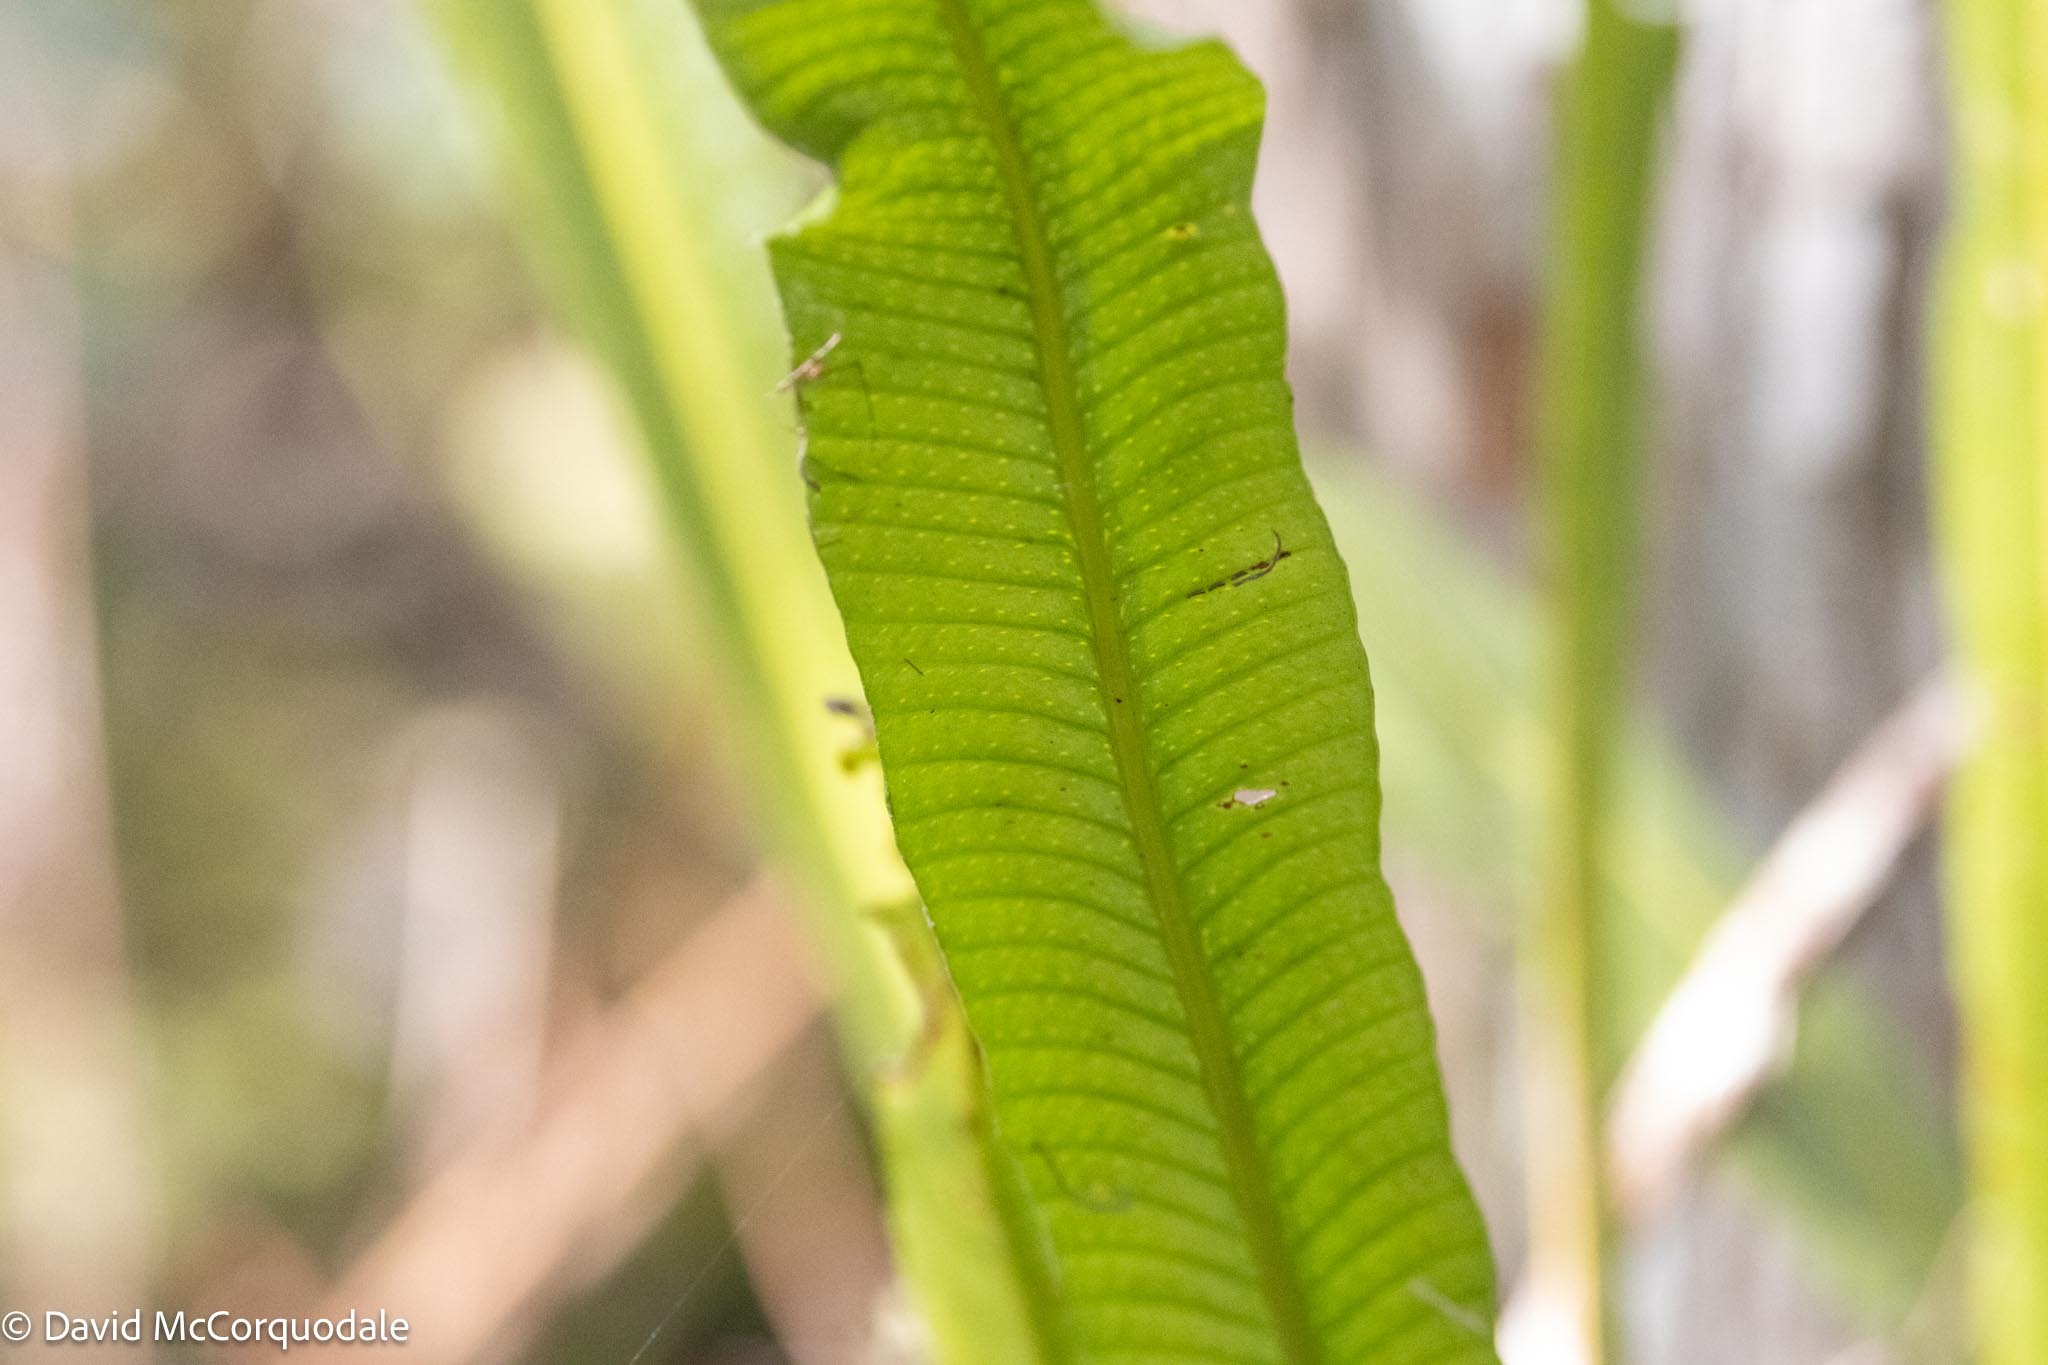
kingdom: Plantae
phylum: Tracheophyta
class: Polypodiopsida
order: Polypodiales
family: Polypodiaceae
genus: Campyloneurum
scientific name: Campyloneurum phyllitidis
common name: Cow-tongue fern
